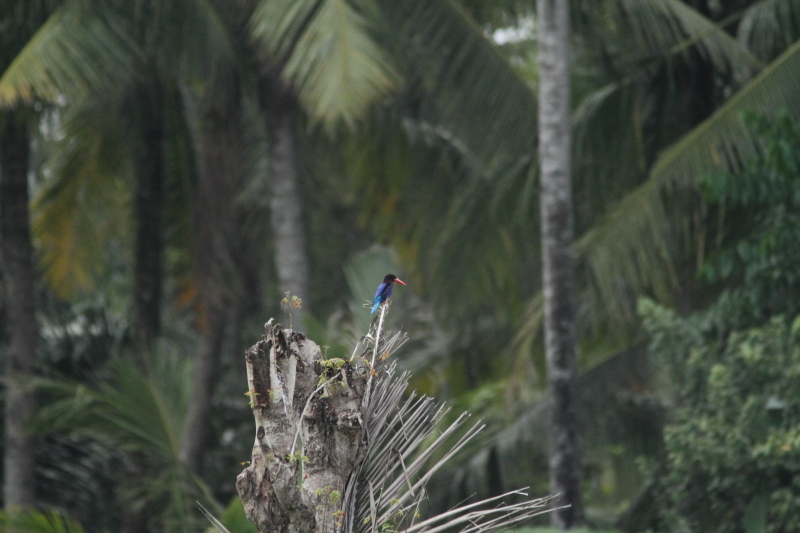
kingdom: Animalia
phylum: Chordata
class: Aves
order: Coraciiformes
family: Alcedinidae
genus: Halcyon
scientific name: Halcyon cyanoventris
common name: Javan kingfisher
